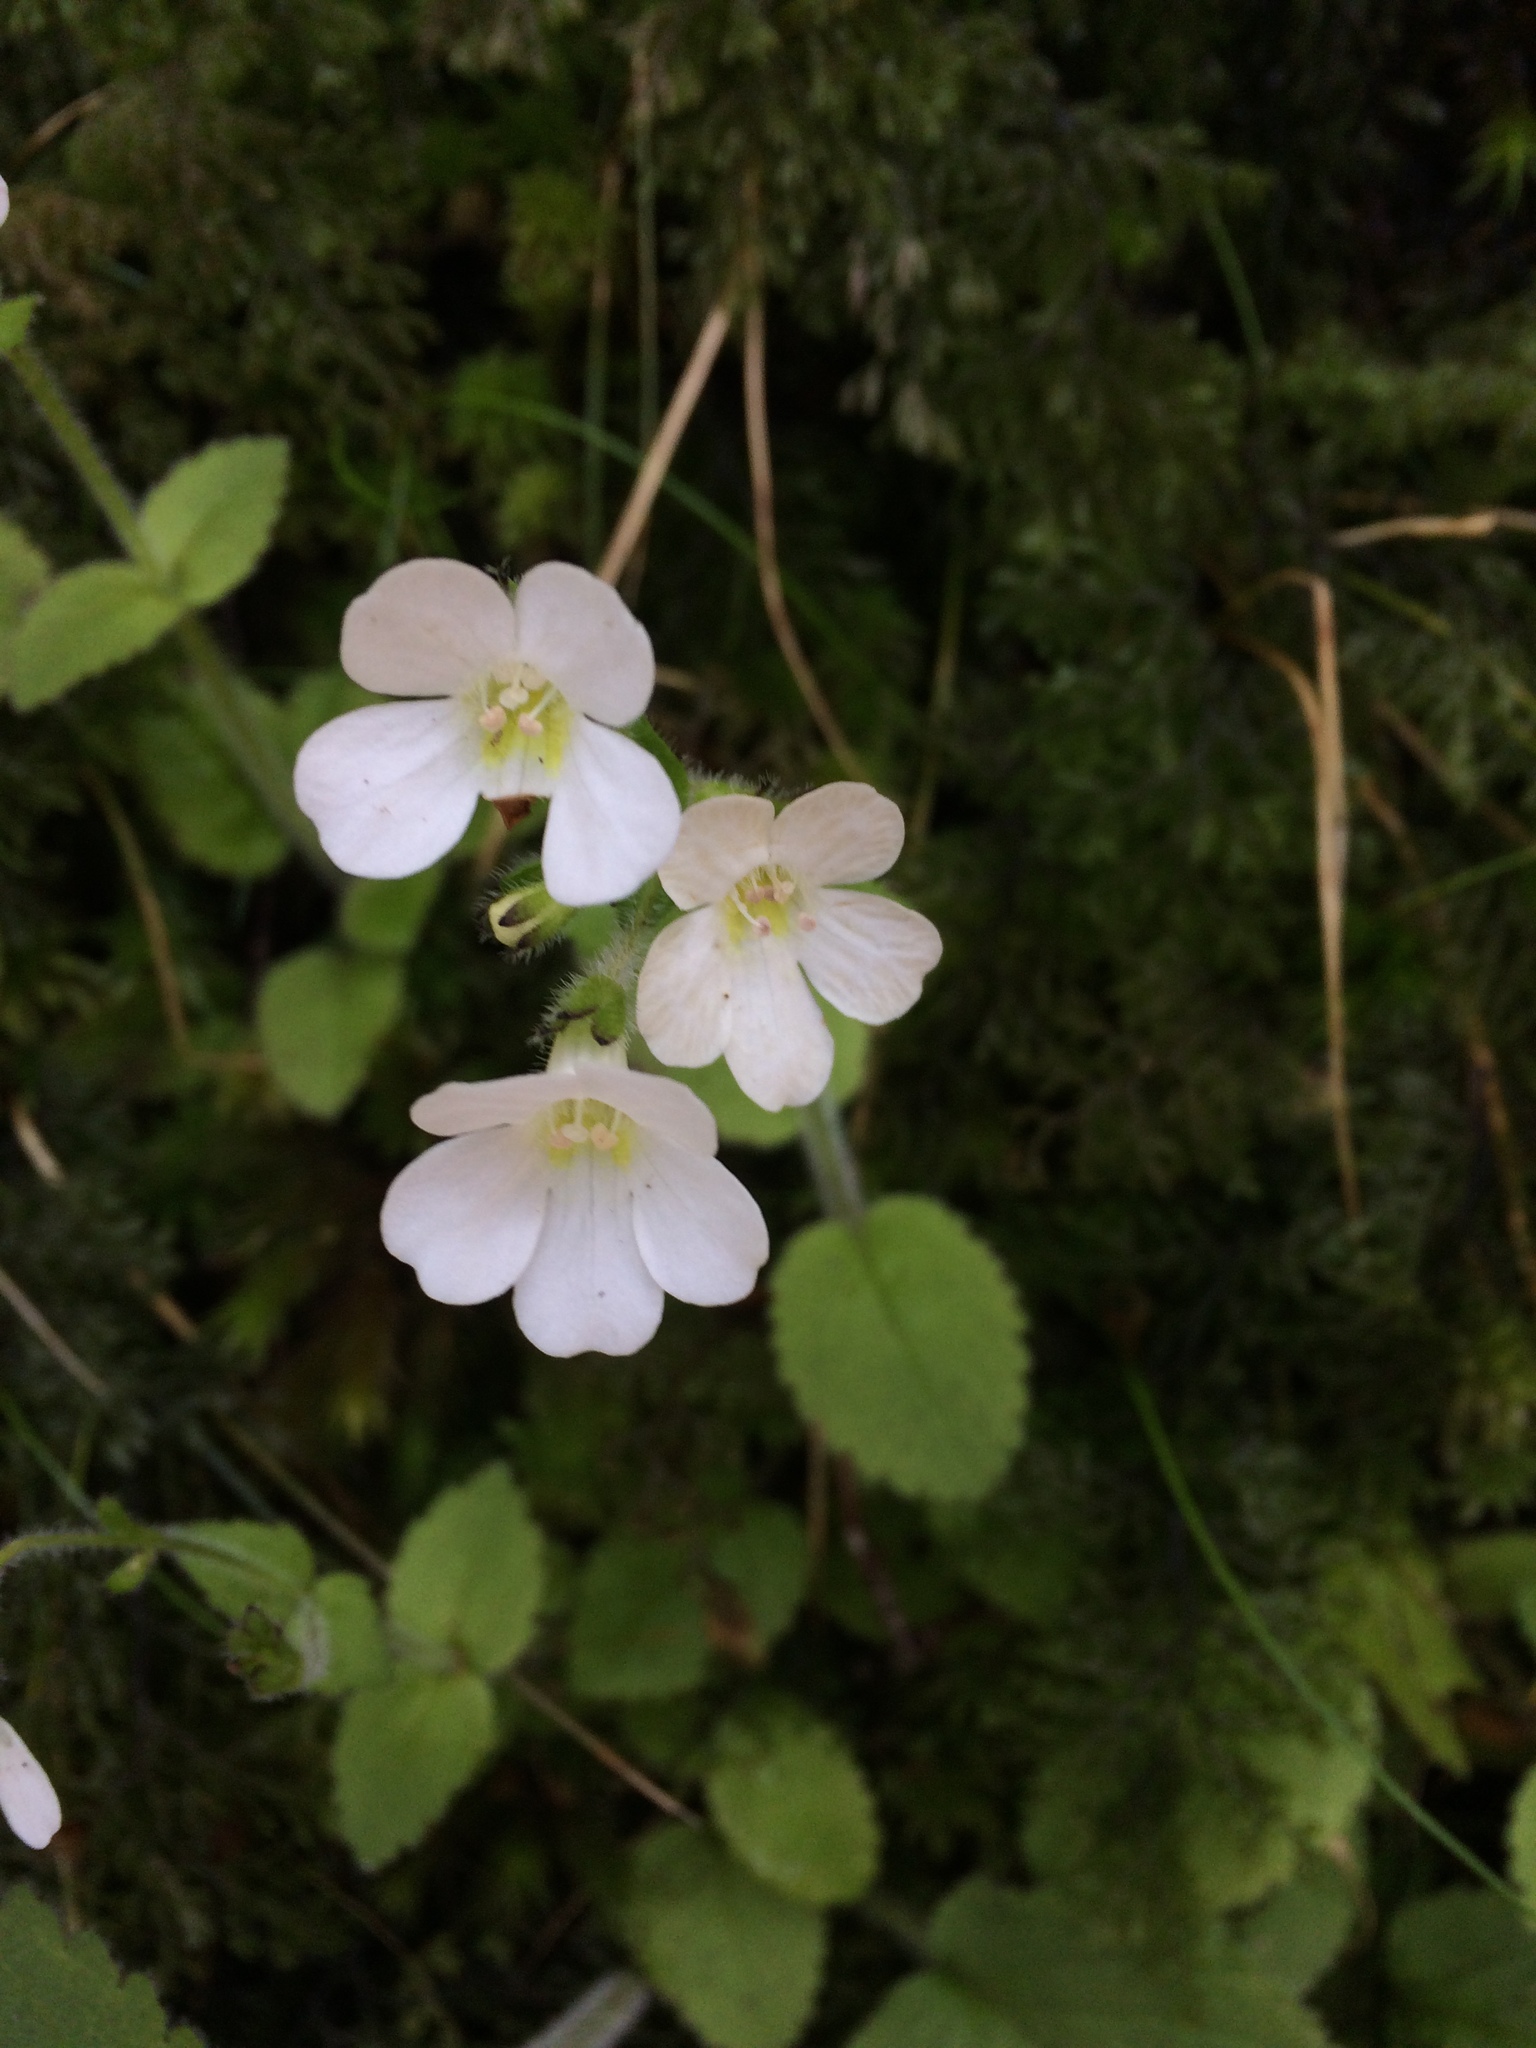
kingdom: Plantae
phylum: Tracheophyta
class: Magnoliopsida
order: Lamiales
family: Plantaginaceae
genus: Ourisia
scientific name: Ourisia crosbyi
